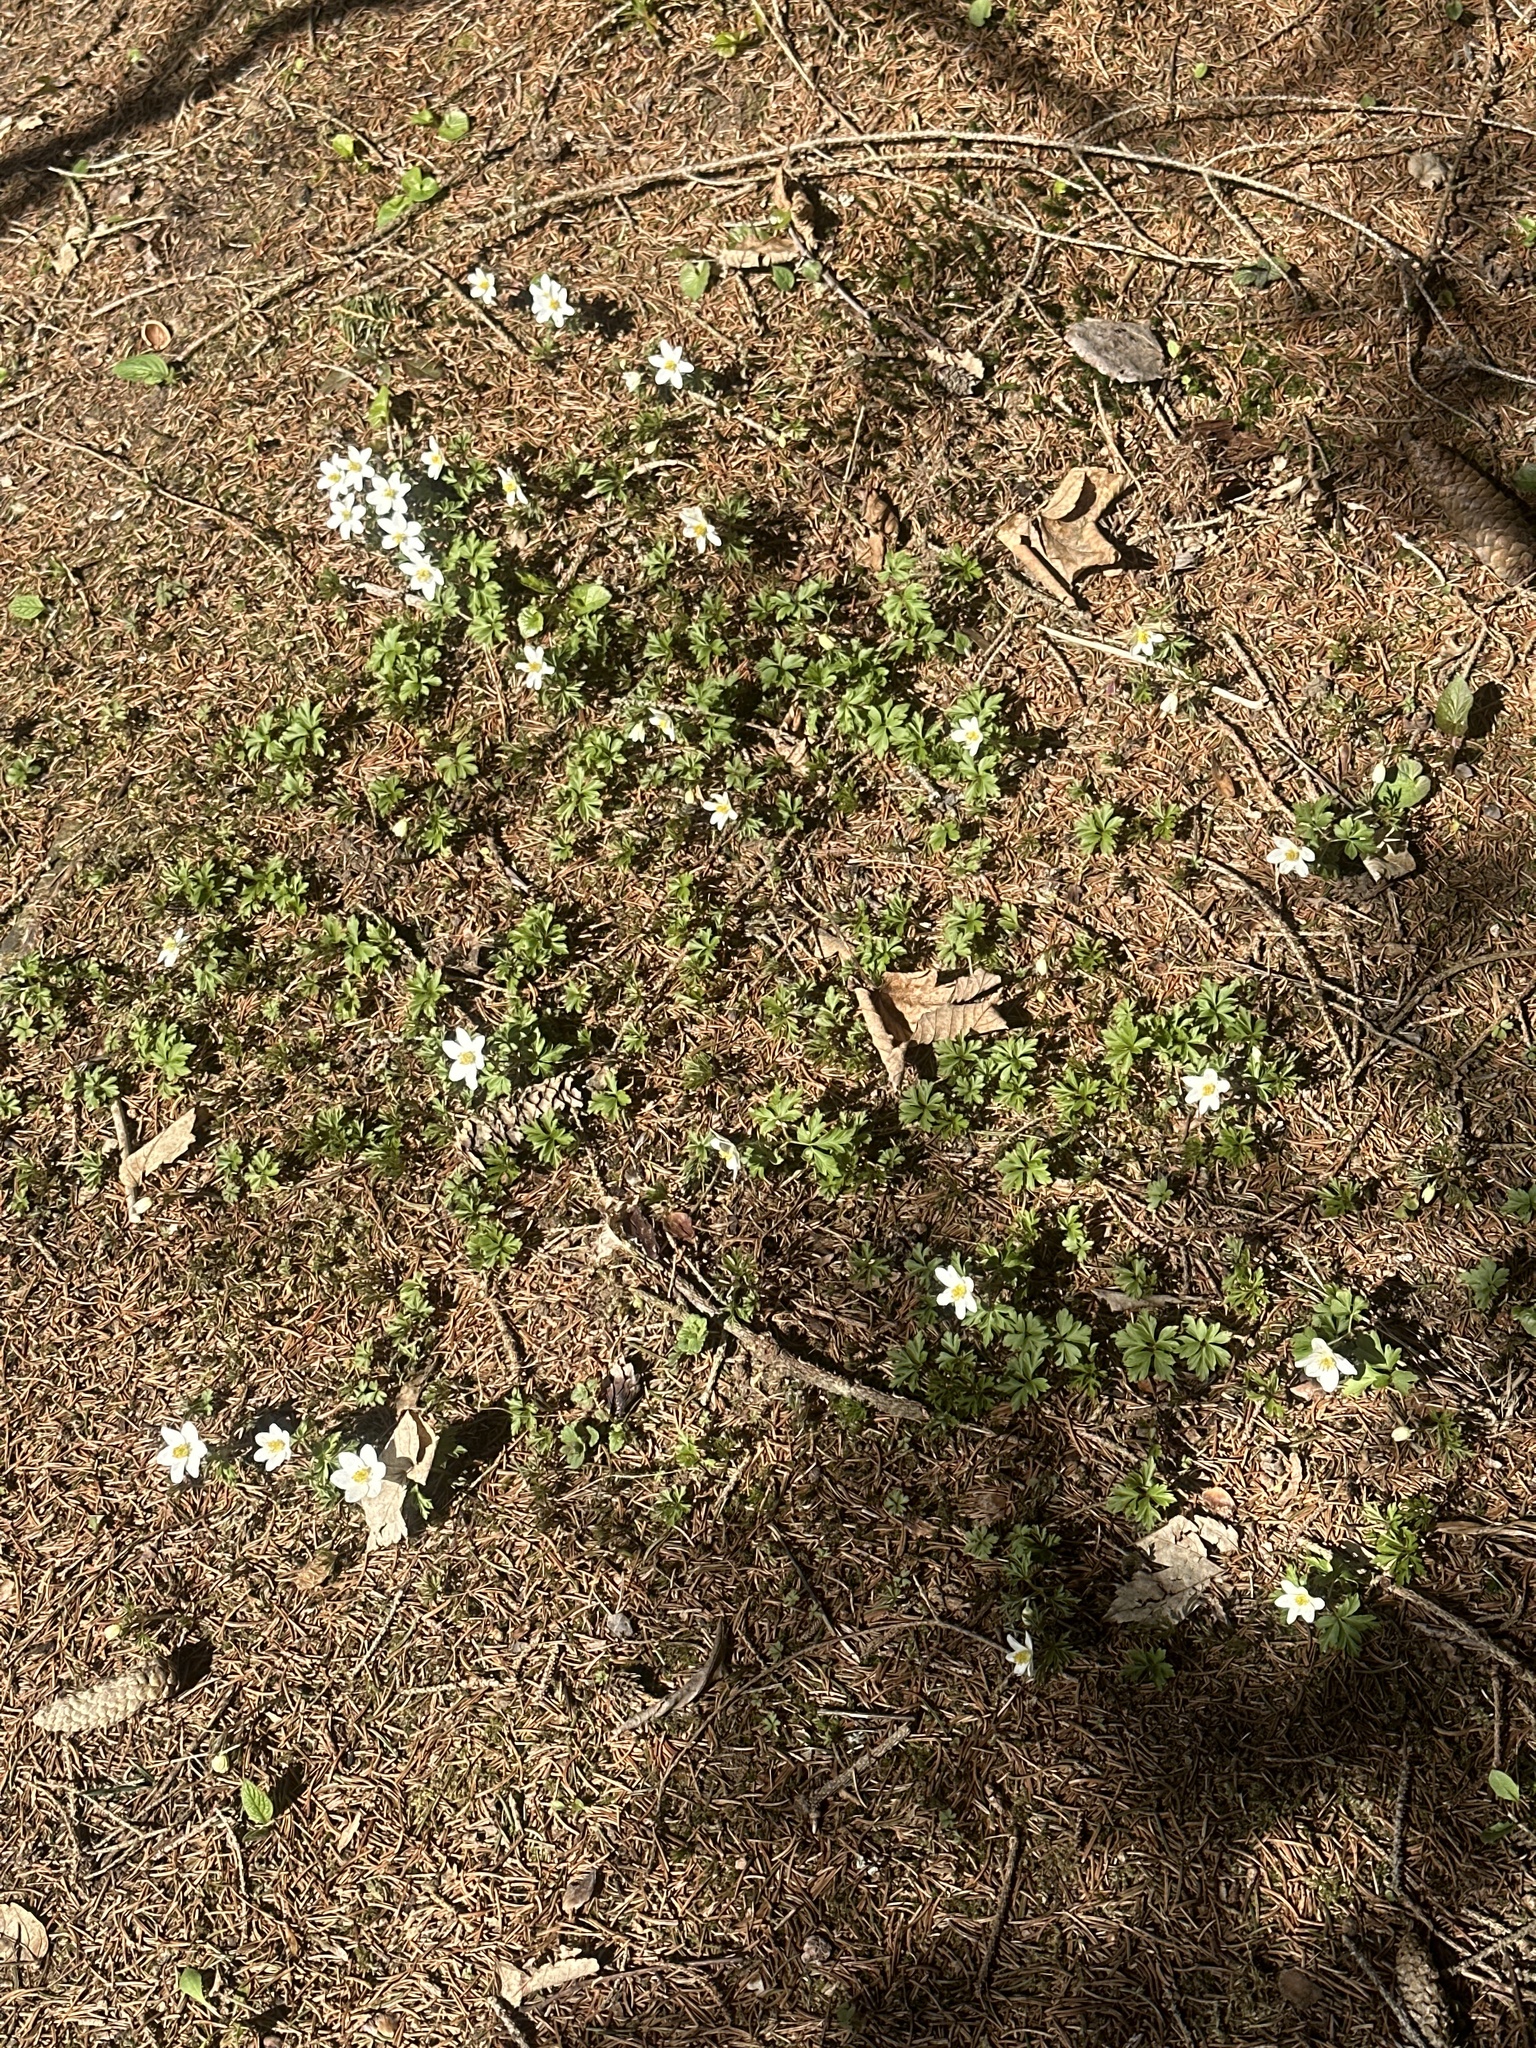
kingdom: Plantae
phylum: Tracheophyta
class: Magnoliopsida
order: Ranunculales
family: Ranunculaceae
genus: Anemone
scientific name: Anemone nemorosa
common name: Wood anemone
